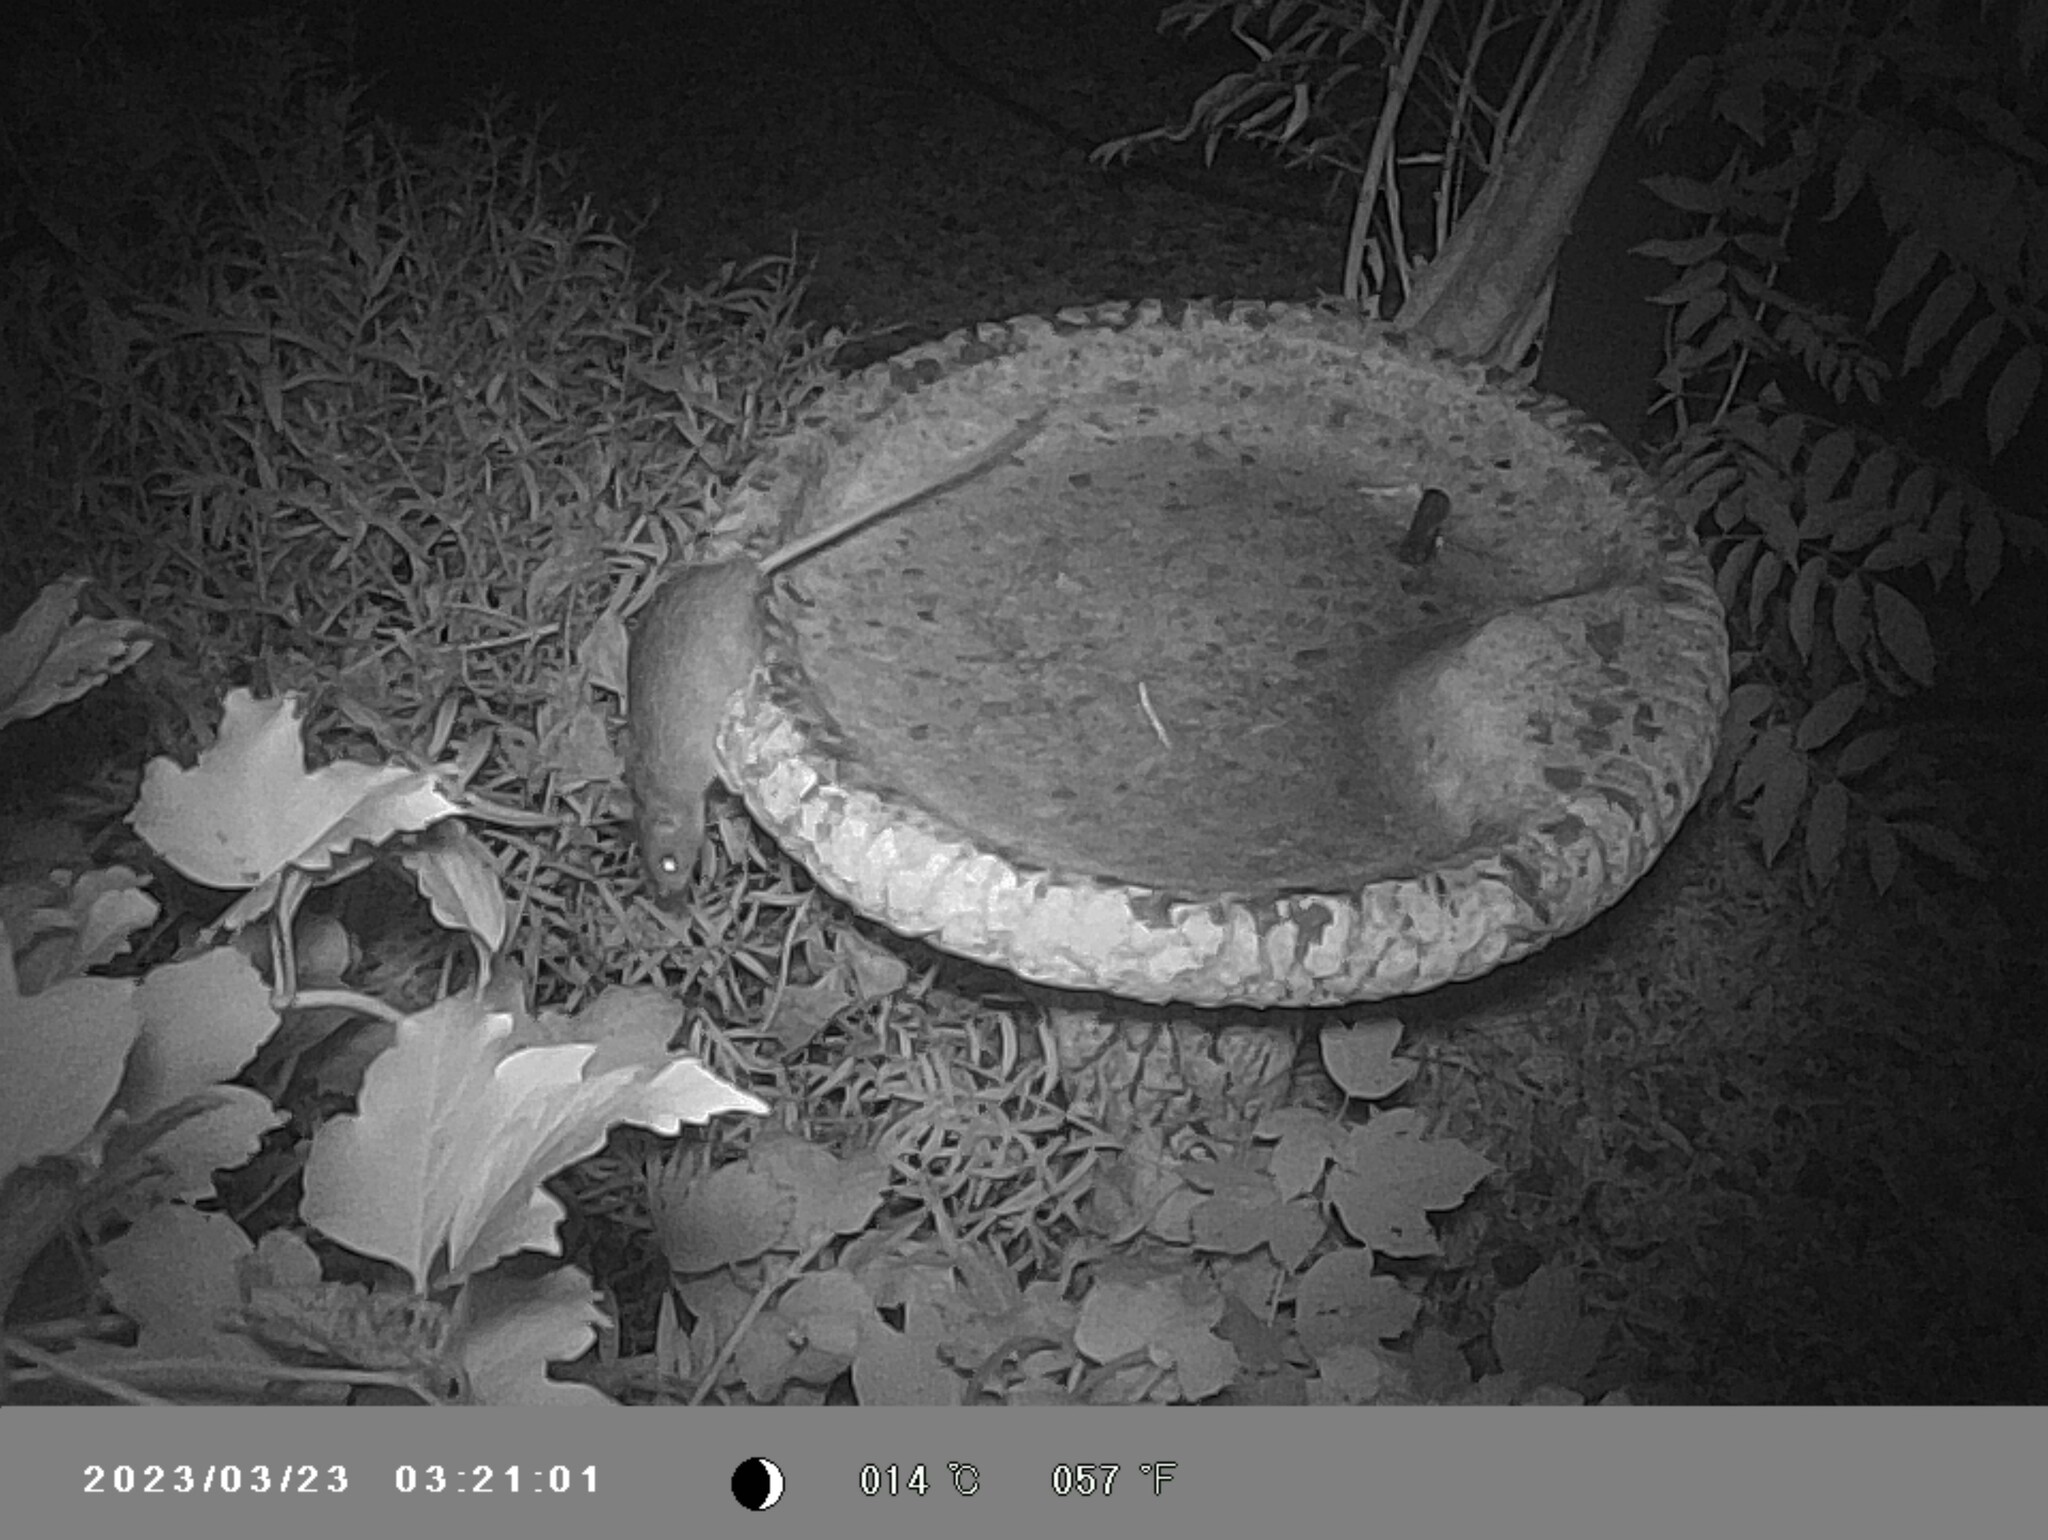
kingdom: Animalia
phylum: Chordata
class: Mammalia
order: Rodentia
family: Muridae
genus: Rattus
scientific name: Rattus norvegicus
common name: Brown rat
